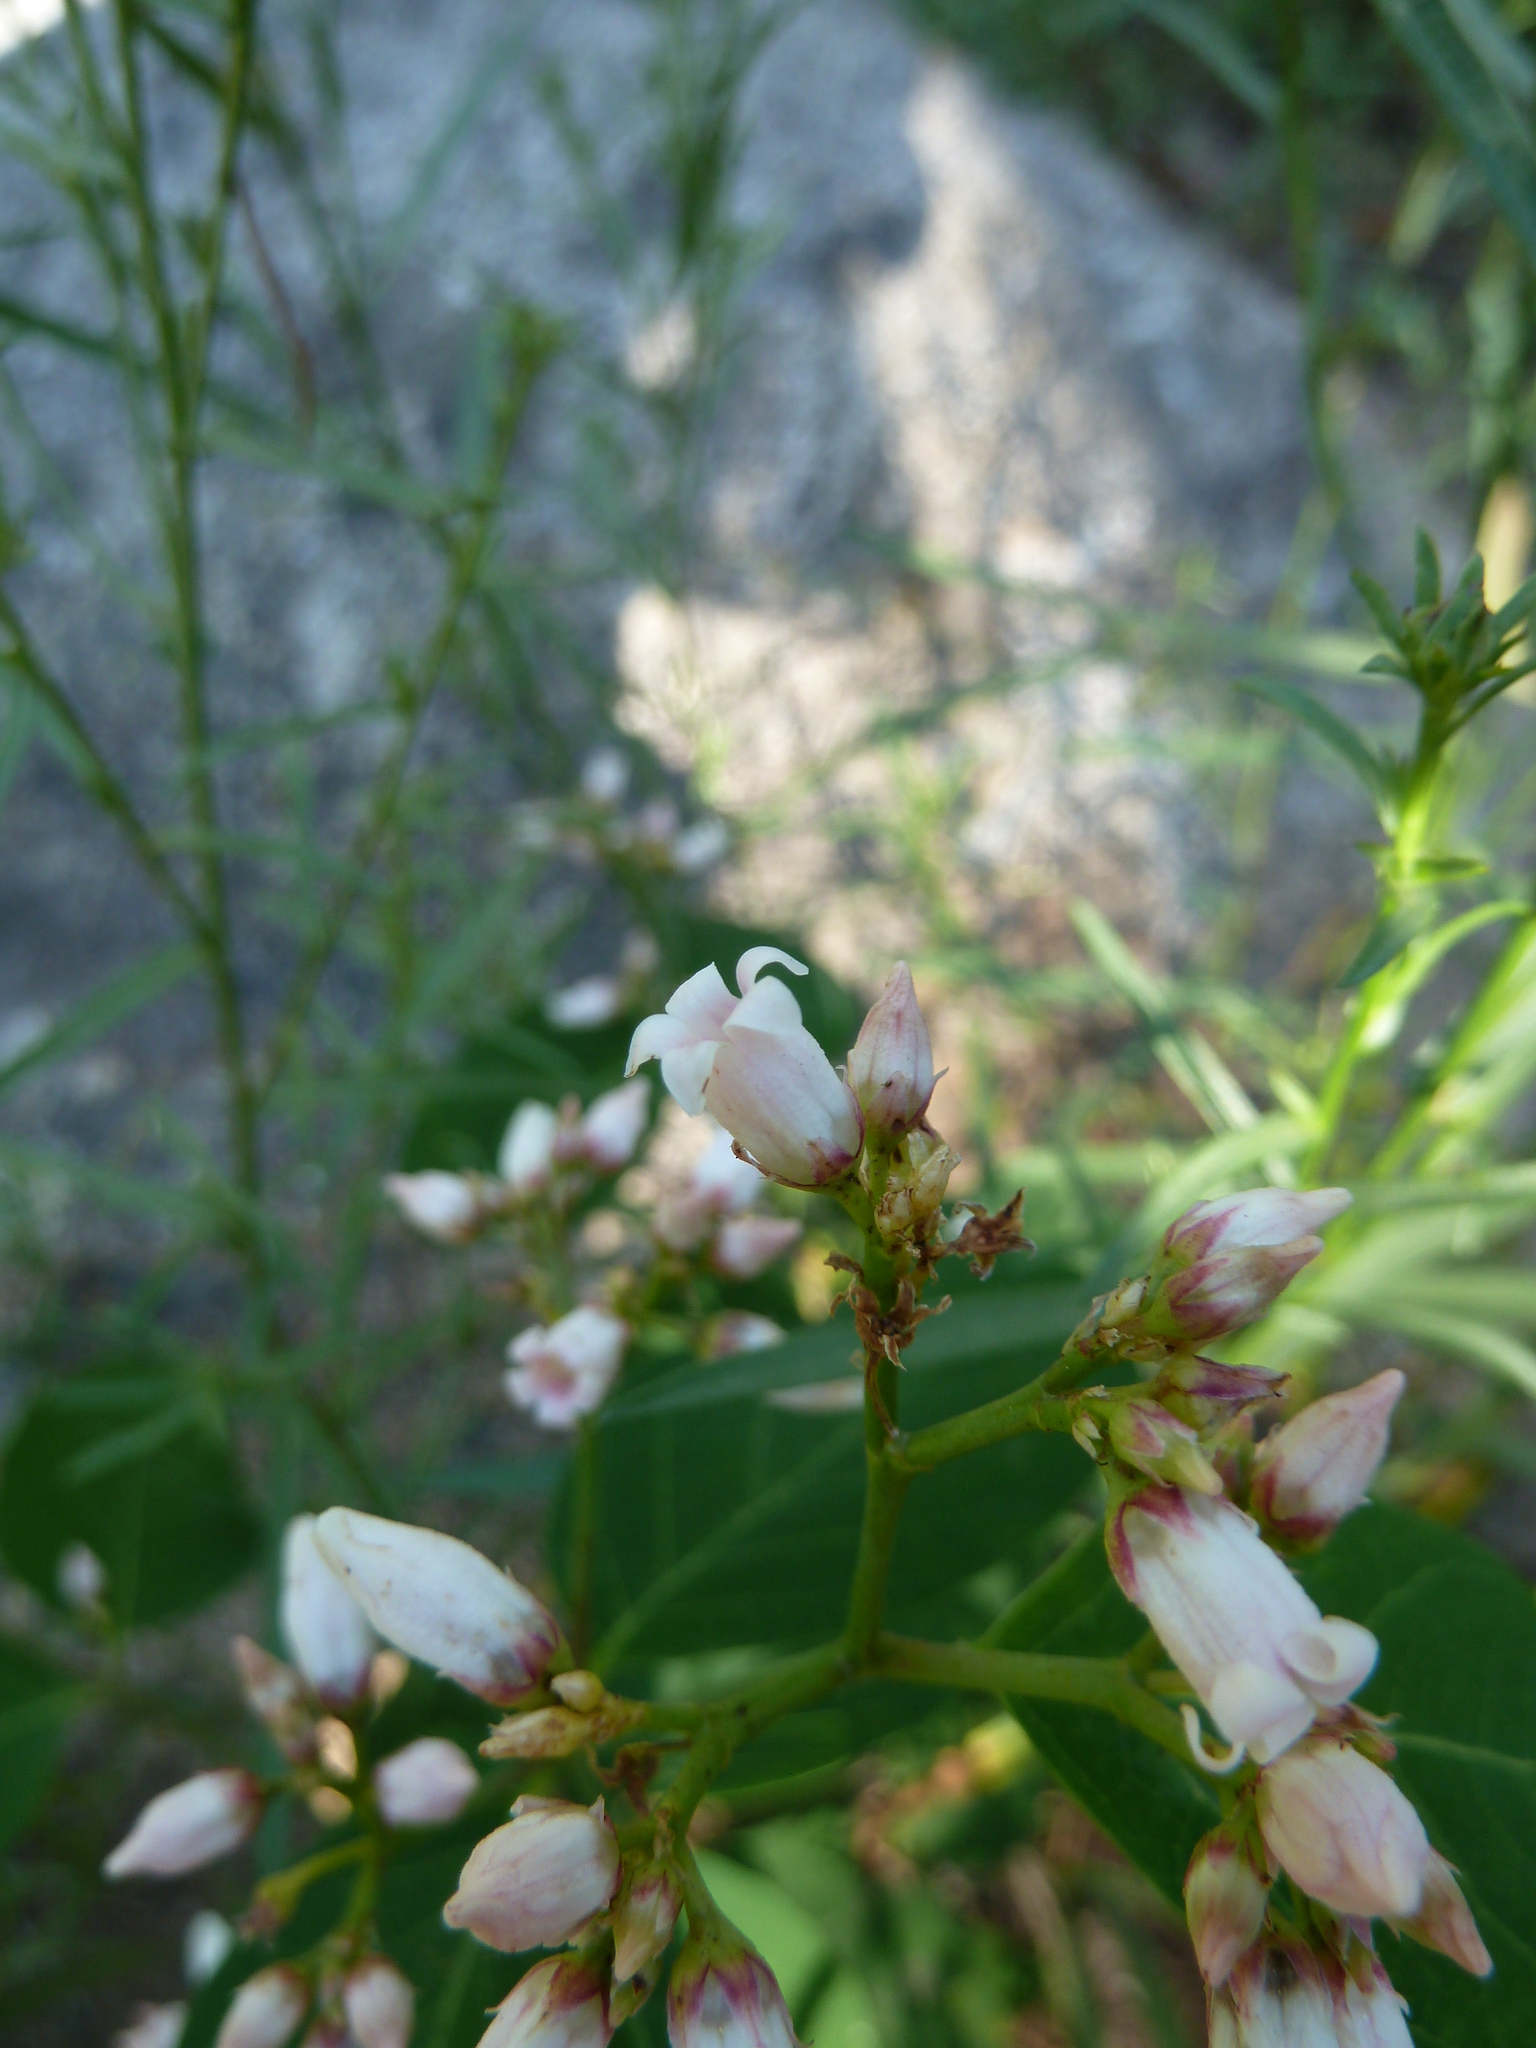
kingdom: Plantae
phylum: Tracheophyta
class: Magnoliopsida
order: Gentianales
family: Apocynaceae
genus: Apocynum
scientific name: Apocynum androsaemifolium
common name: Spreading dogbane
